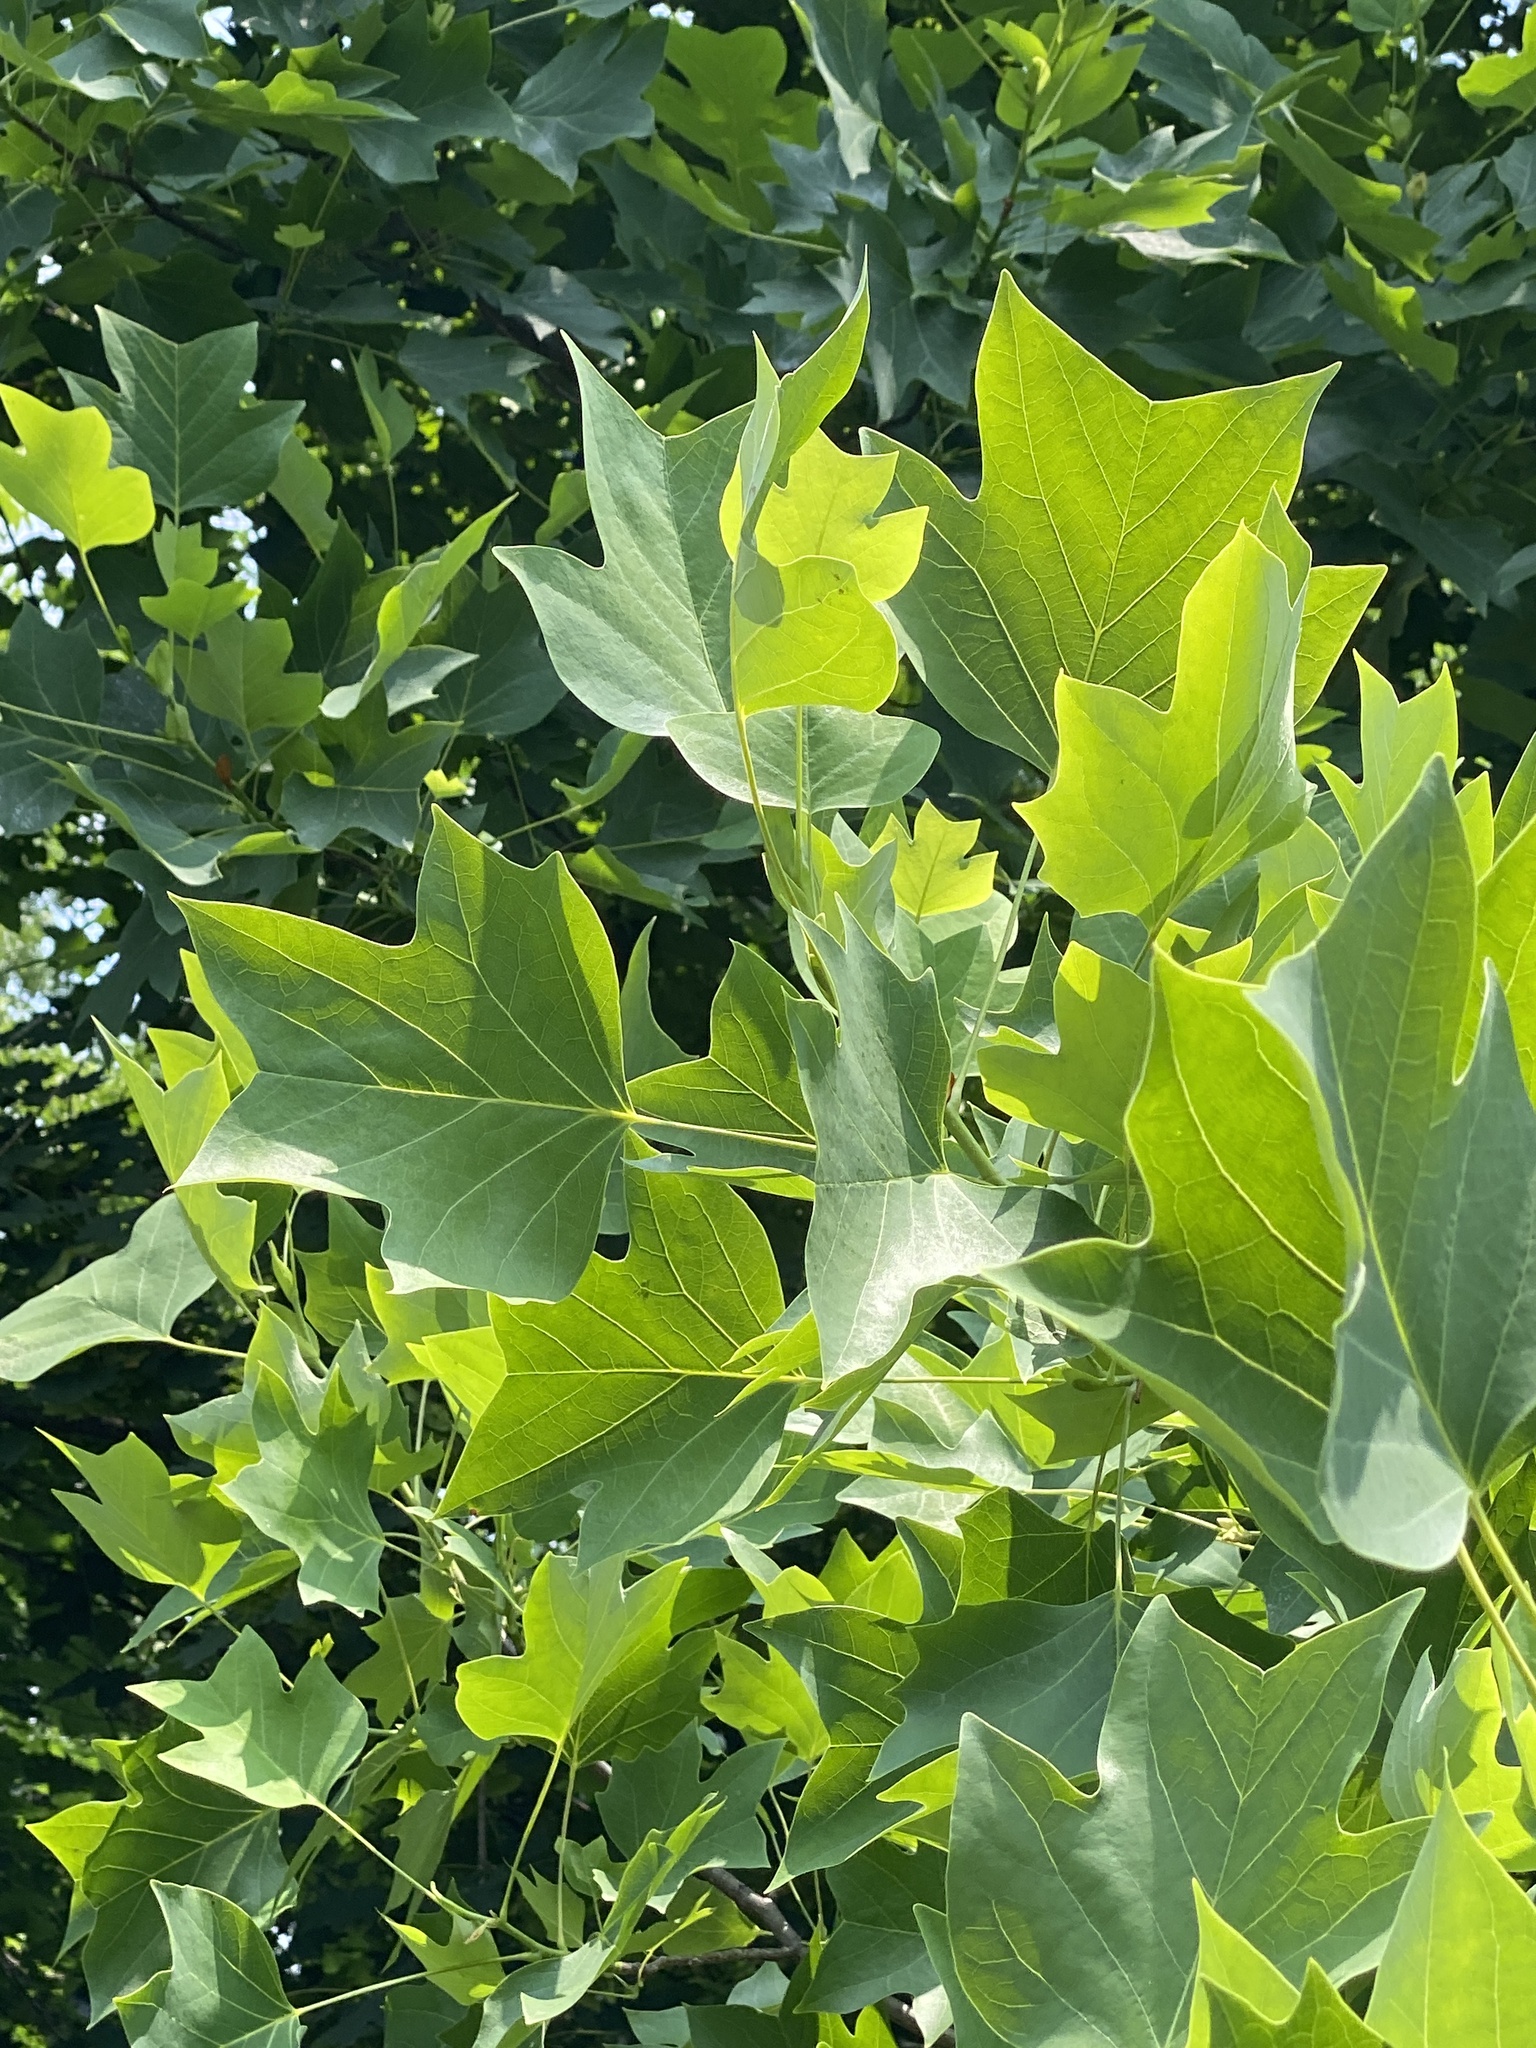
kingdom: Plantae
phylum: Tracheophyta
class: Magnoliopsida
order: Magnoliales
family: Magnoliaceae
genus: Liriodendron
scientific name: Liriodendron tulipifera
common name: Tulip tree
